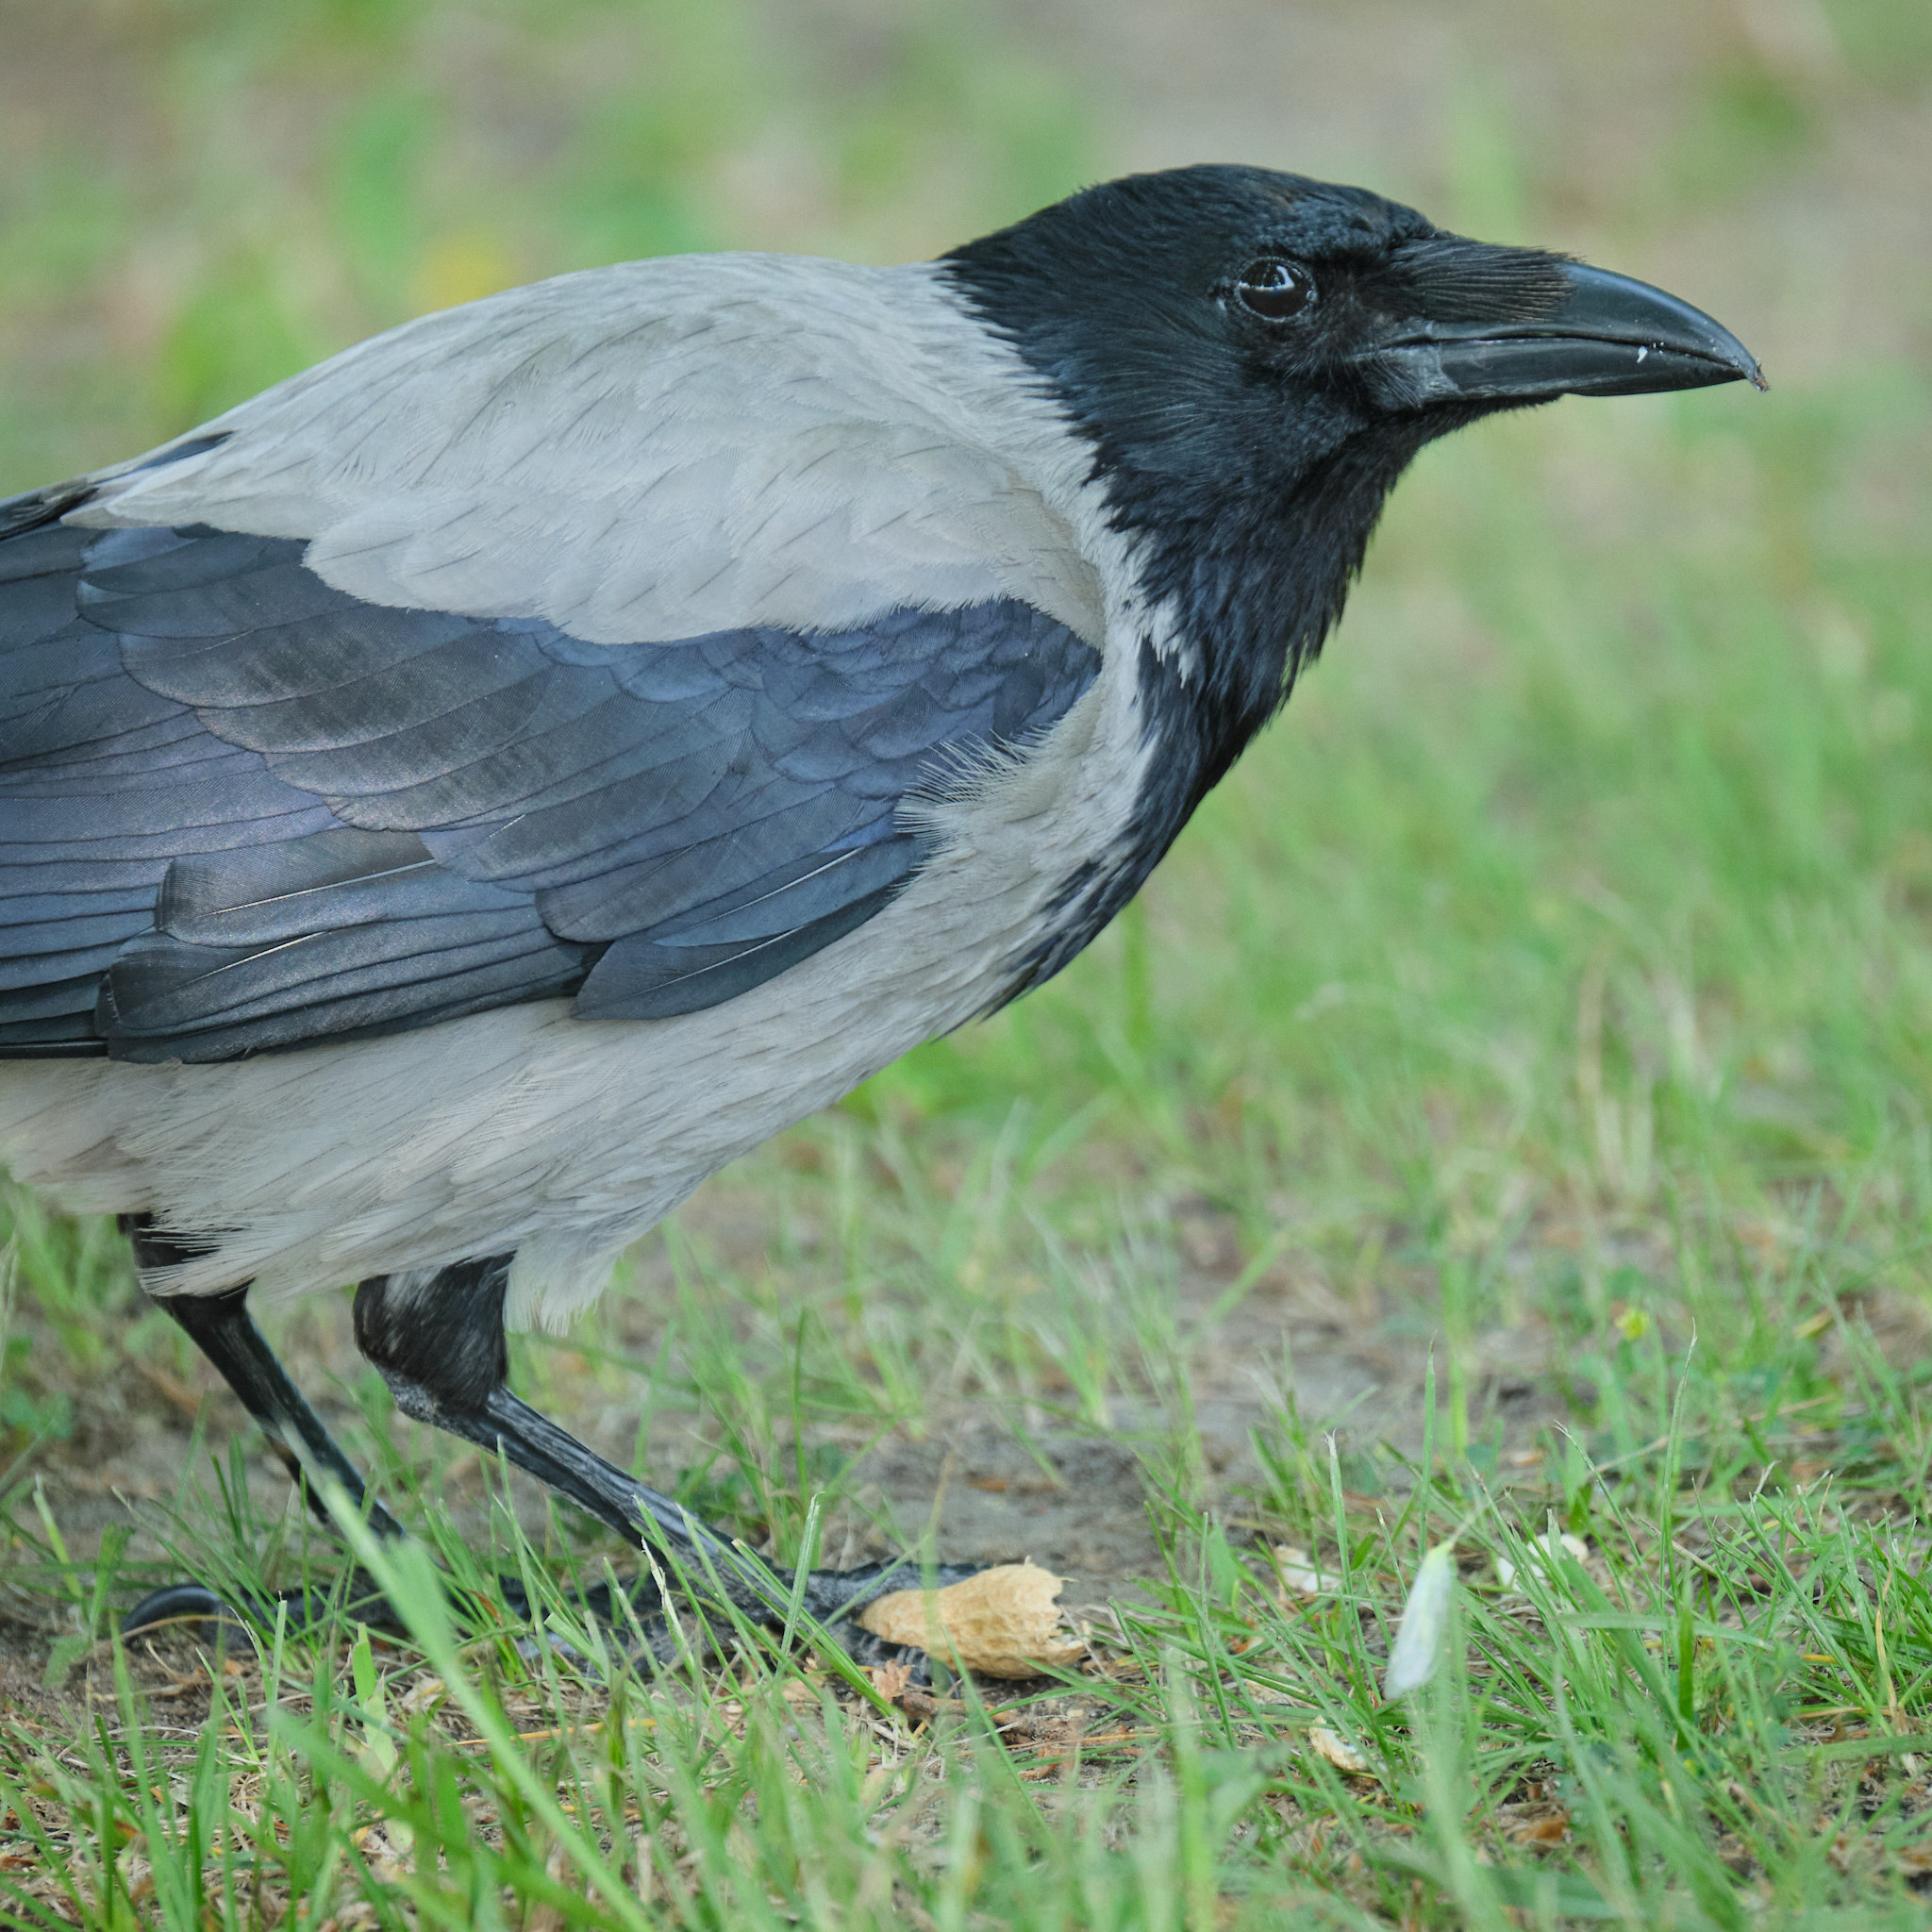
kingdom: Animalia
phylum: Chordata
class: Aves
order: Passeriformes
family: Corvidae
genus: Corvus
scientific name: Corvus cornix
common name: Hooded crow
